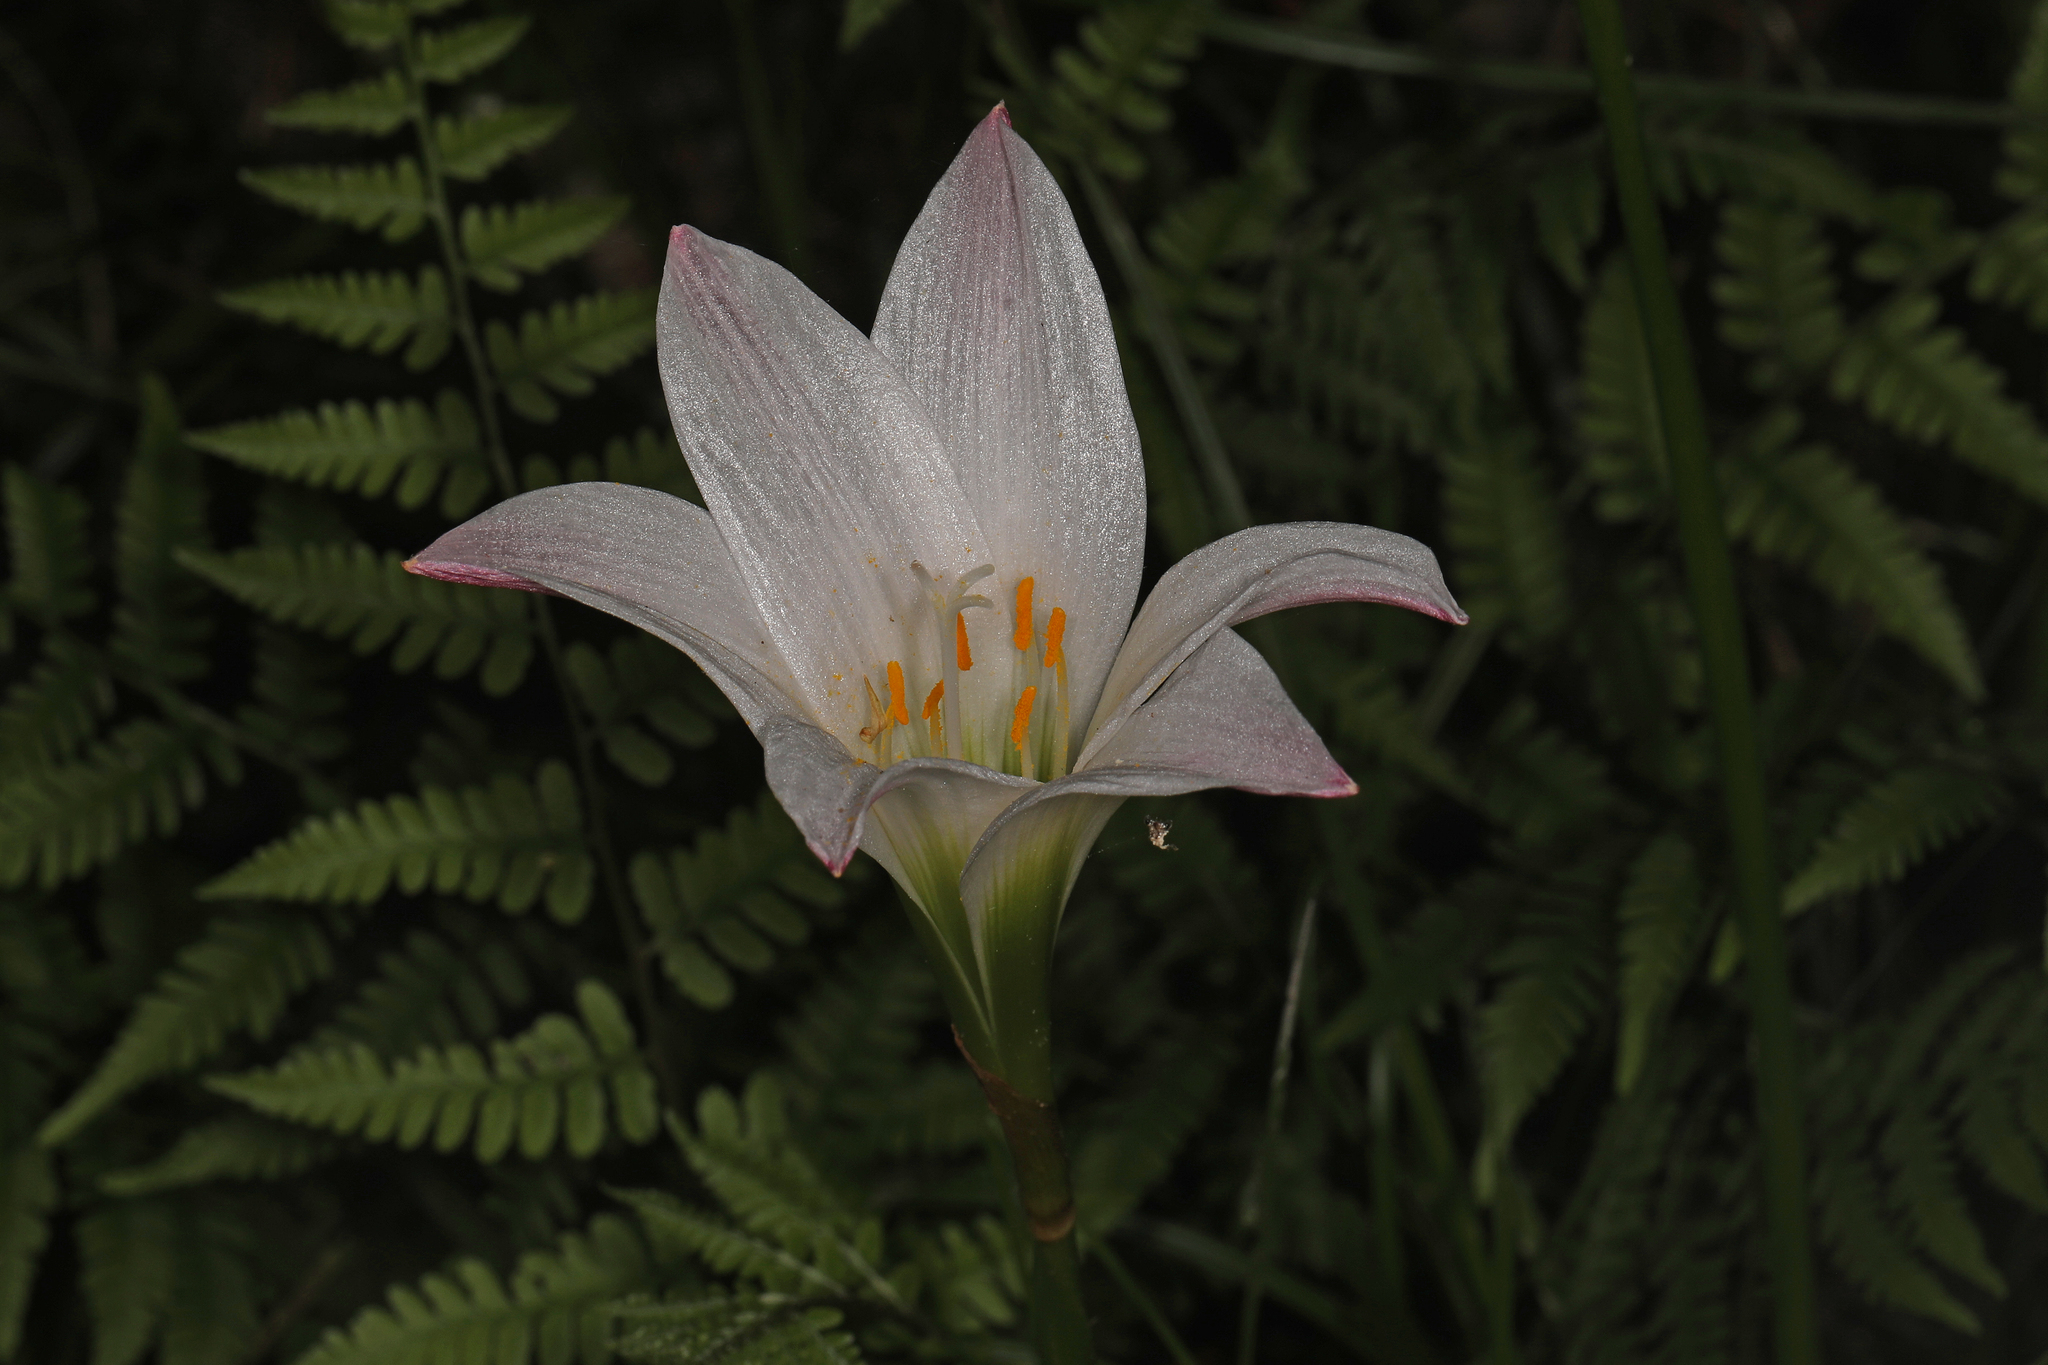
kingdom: Plantae
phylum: Tracheophyta
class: Liliopsida
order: Asparagales
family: Amaryllidaceae
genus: Zephyranthes
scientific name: Zephyranthes atamasco
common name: Atamasco lily
